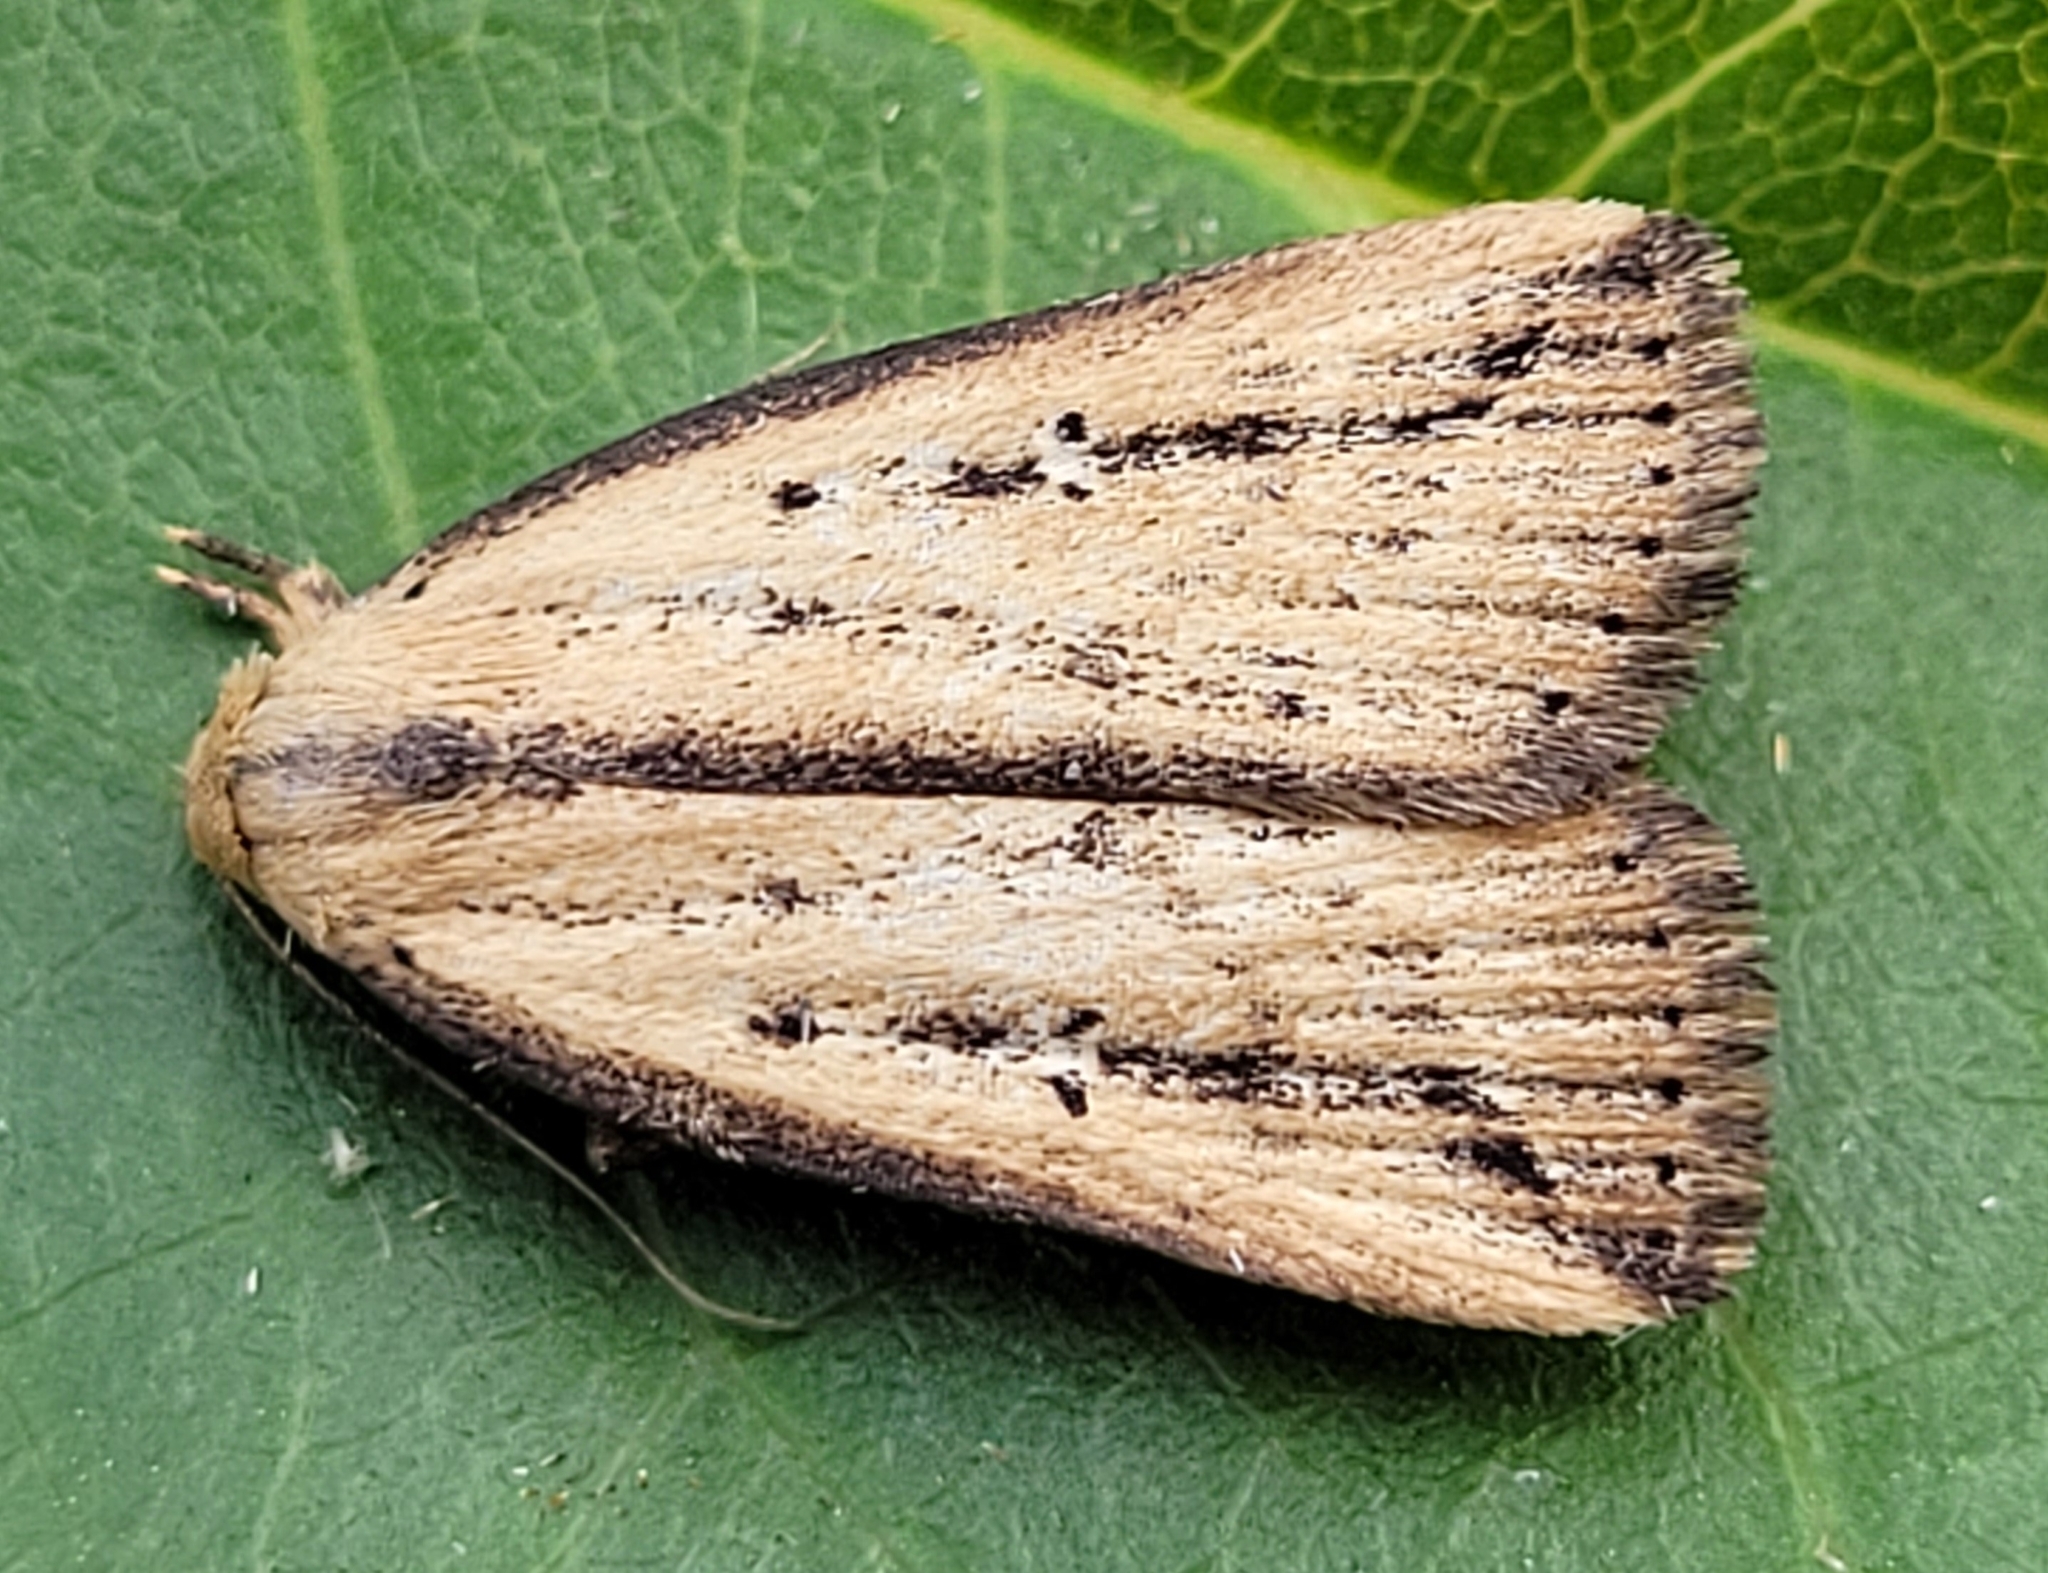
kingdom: Animalia
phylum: Arthropoda
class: Insecta
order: Lepidoptera
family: Erebidae
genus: Macrochilo
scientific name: Macrochilo orciferalis
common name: Bronzy owlet
